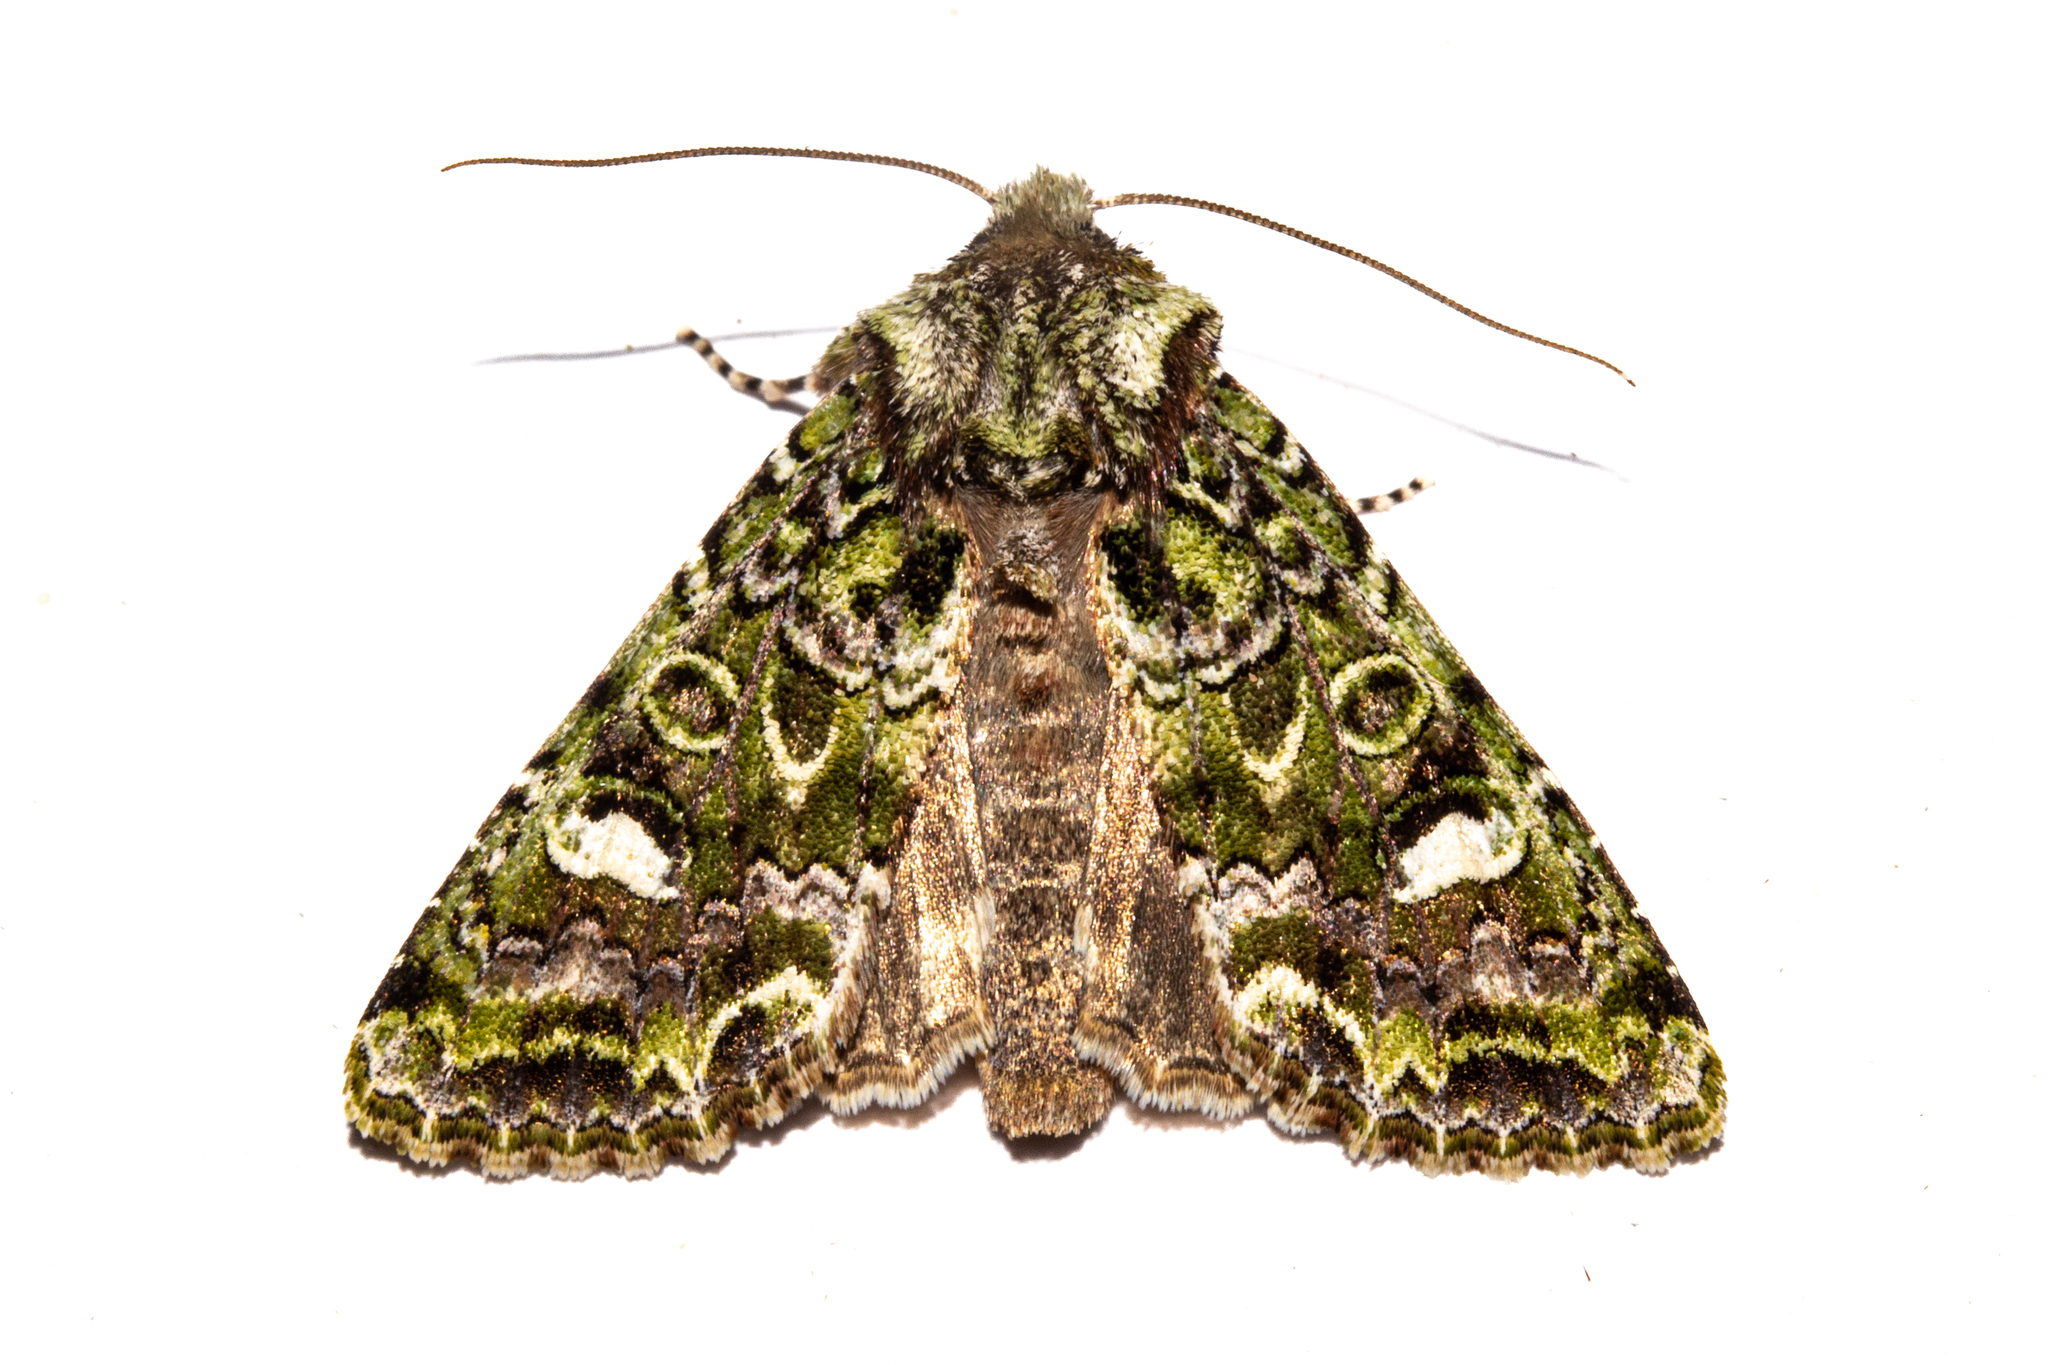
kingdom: Animalia
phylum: Arthropoda
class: Insecta
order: Lepidoptera
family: Noctuidae
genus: Ichneutica
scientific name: Ichneutica
